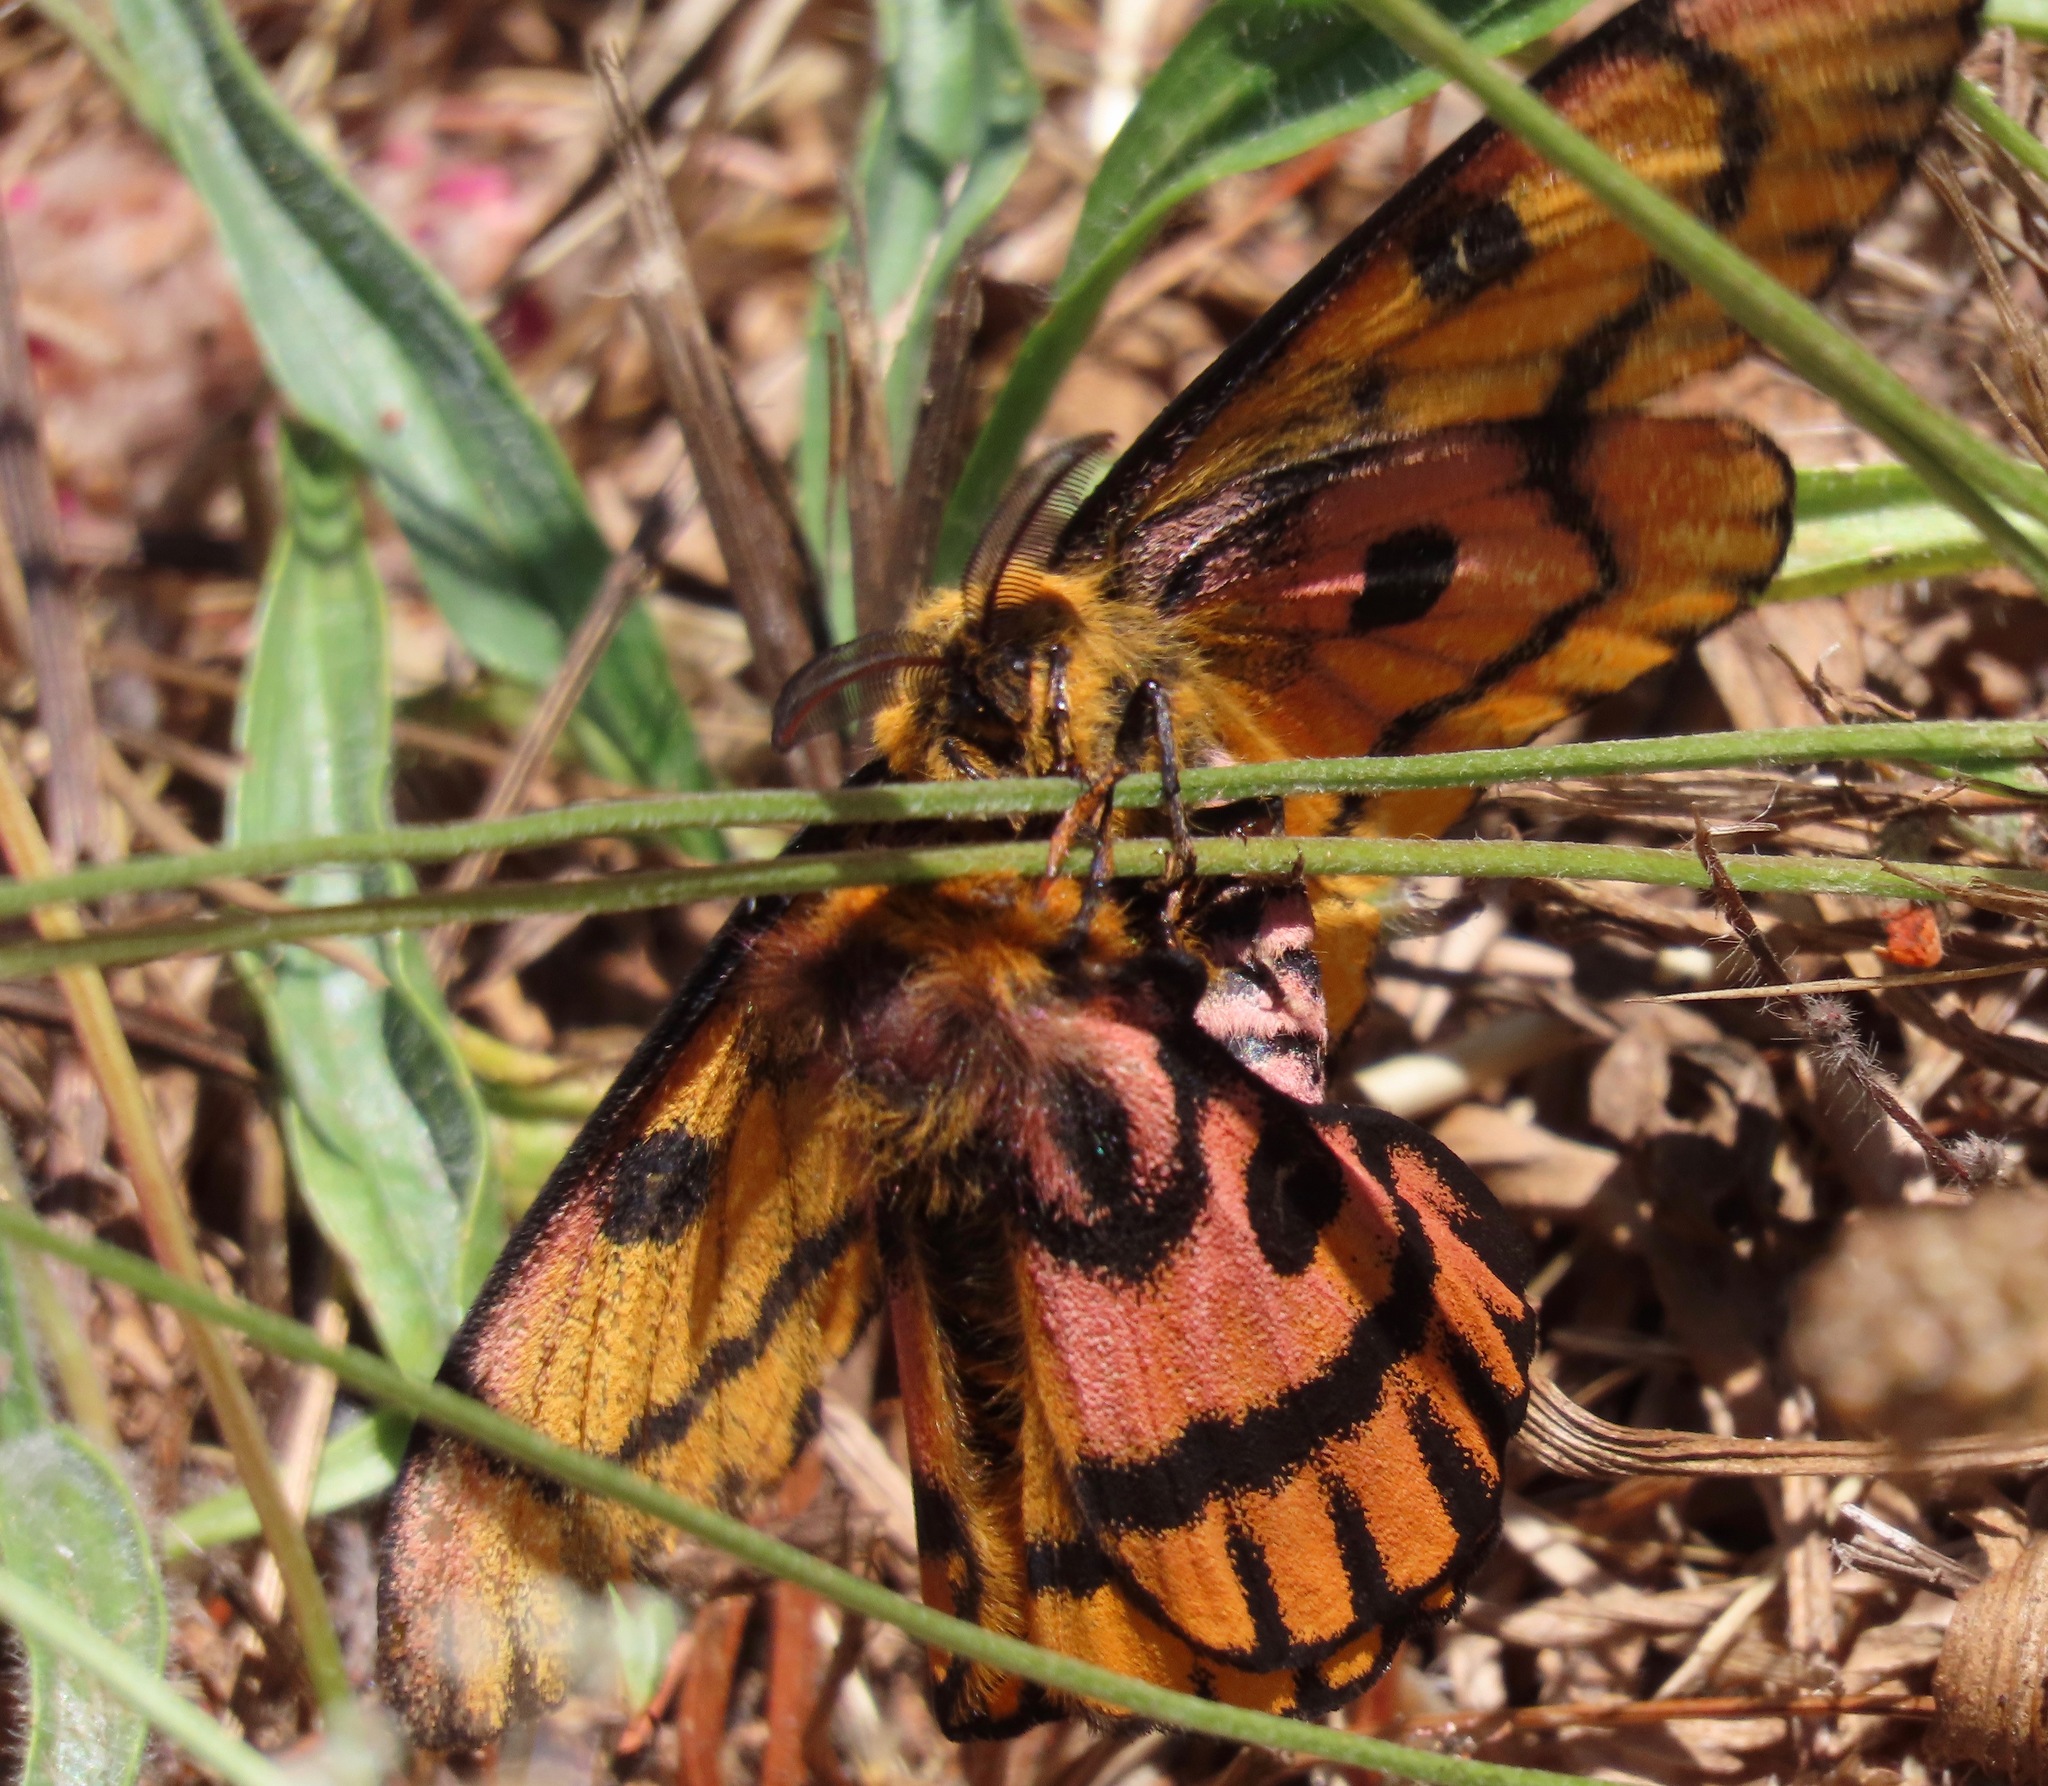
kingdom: Animalia
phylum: Arthropoda
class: Insecta
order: Lepidoptera
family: Saturniidae
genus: Hemileuca
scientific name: Hemileuca eglanterina
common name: Western sheepmoth
